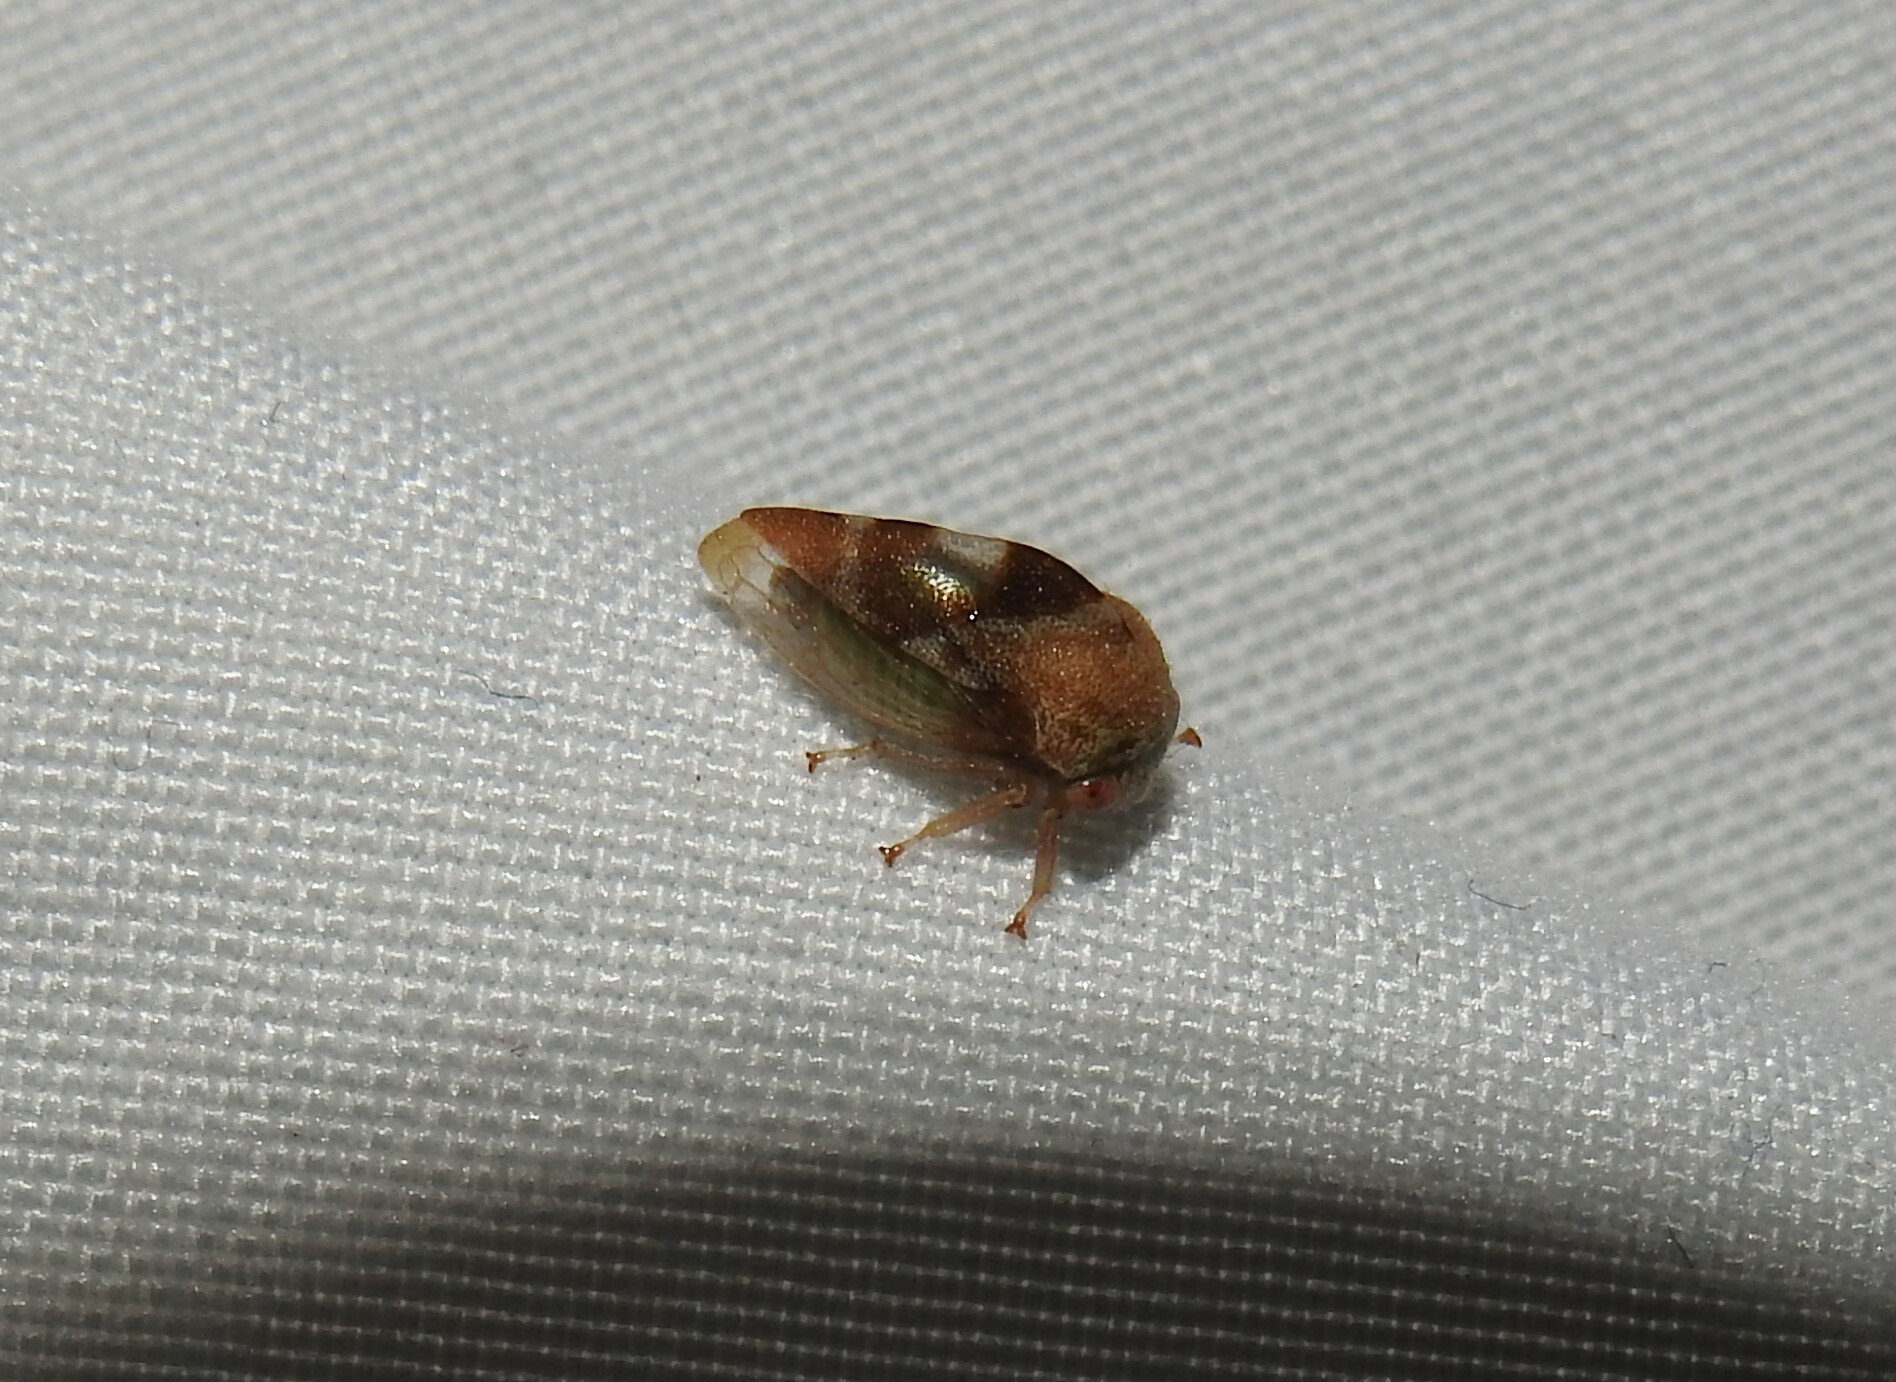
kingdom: Animalia
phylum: Arthropoda
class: Insecta
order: Hemiptera
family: Membracidae
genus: Cyrtolobus
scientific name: Cyrtolobus vau
